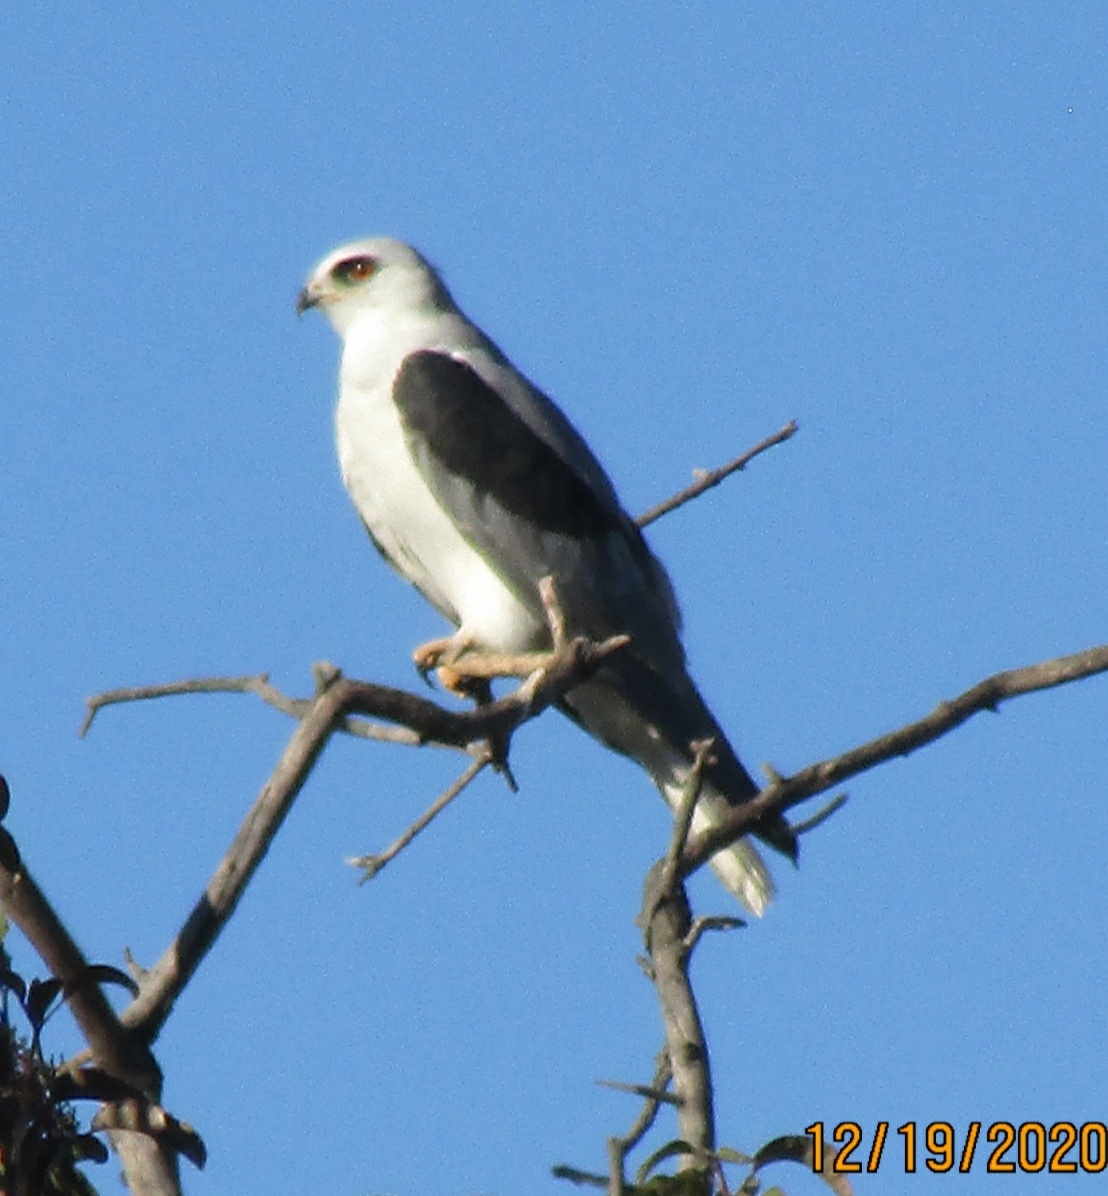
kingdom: Animalia
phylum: Chordata
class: Aves
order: Accipitriformes
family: Accipitridae
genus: Elanus
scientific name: Elanus leucurus
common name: White-tailed kite
